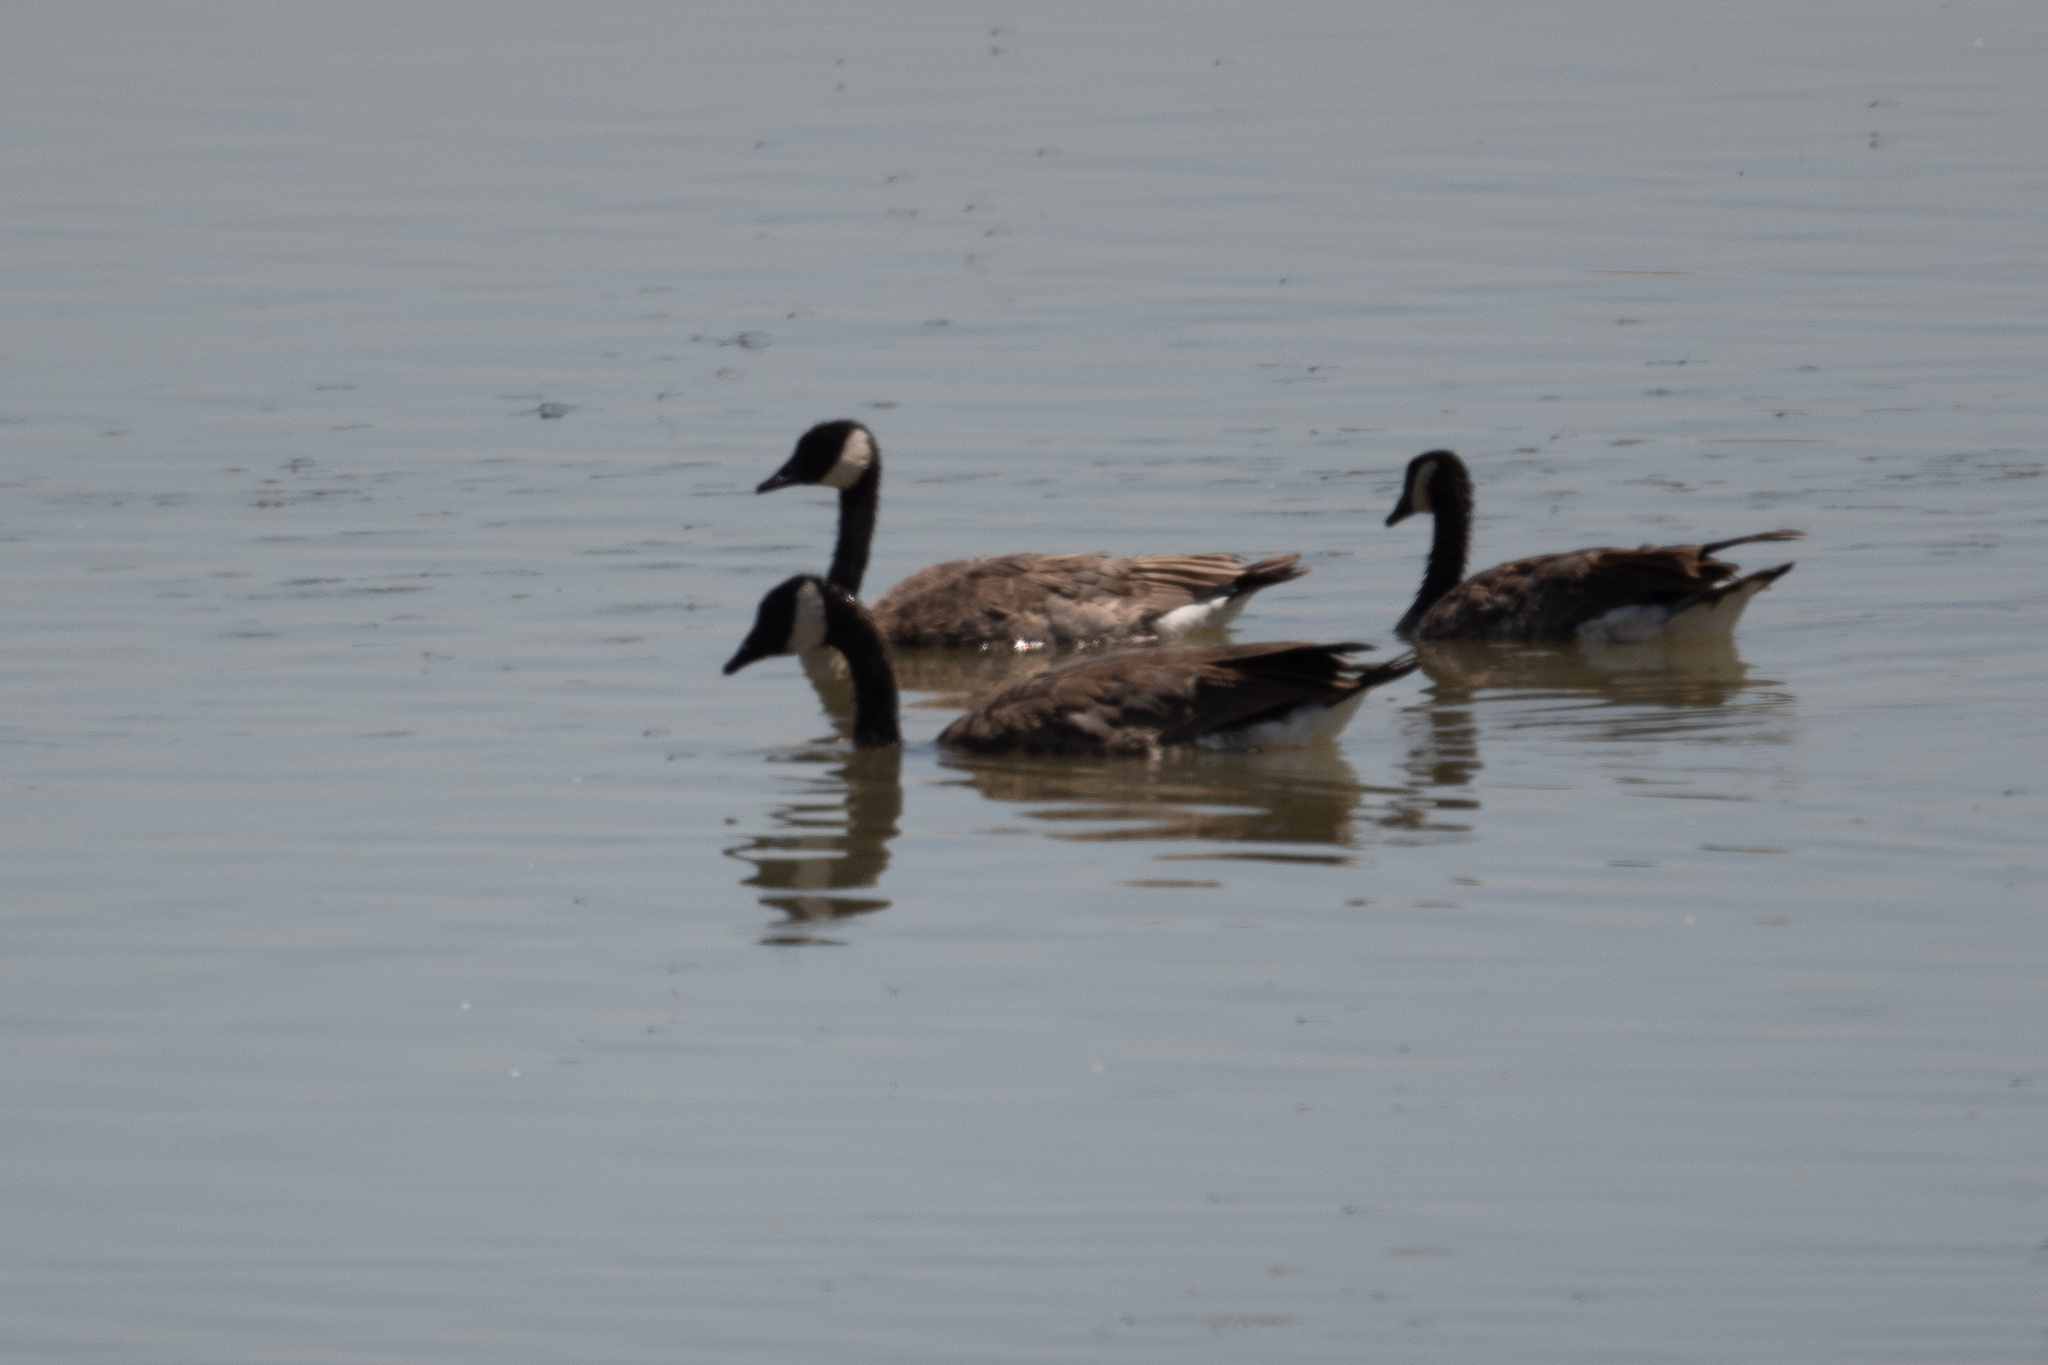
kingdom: Animalia
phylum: Chordata
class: Aves
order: Anseriformes
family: Anatidae
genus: Branta
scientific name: Branta canadensis
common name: Canada goose
